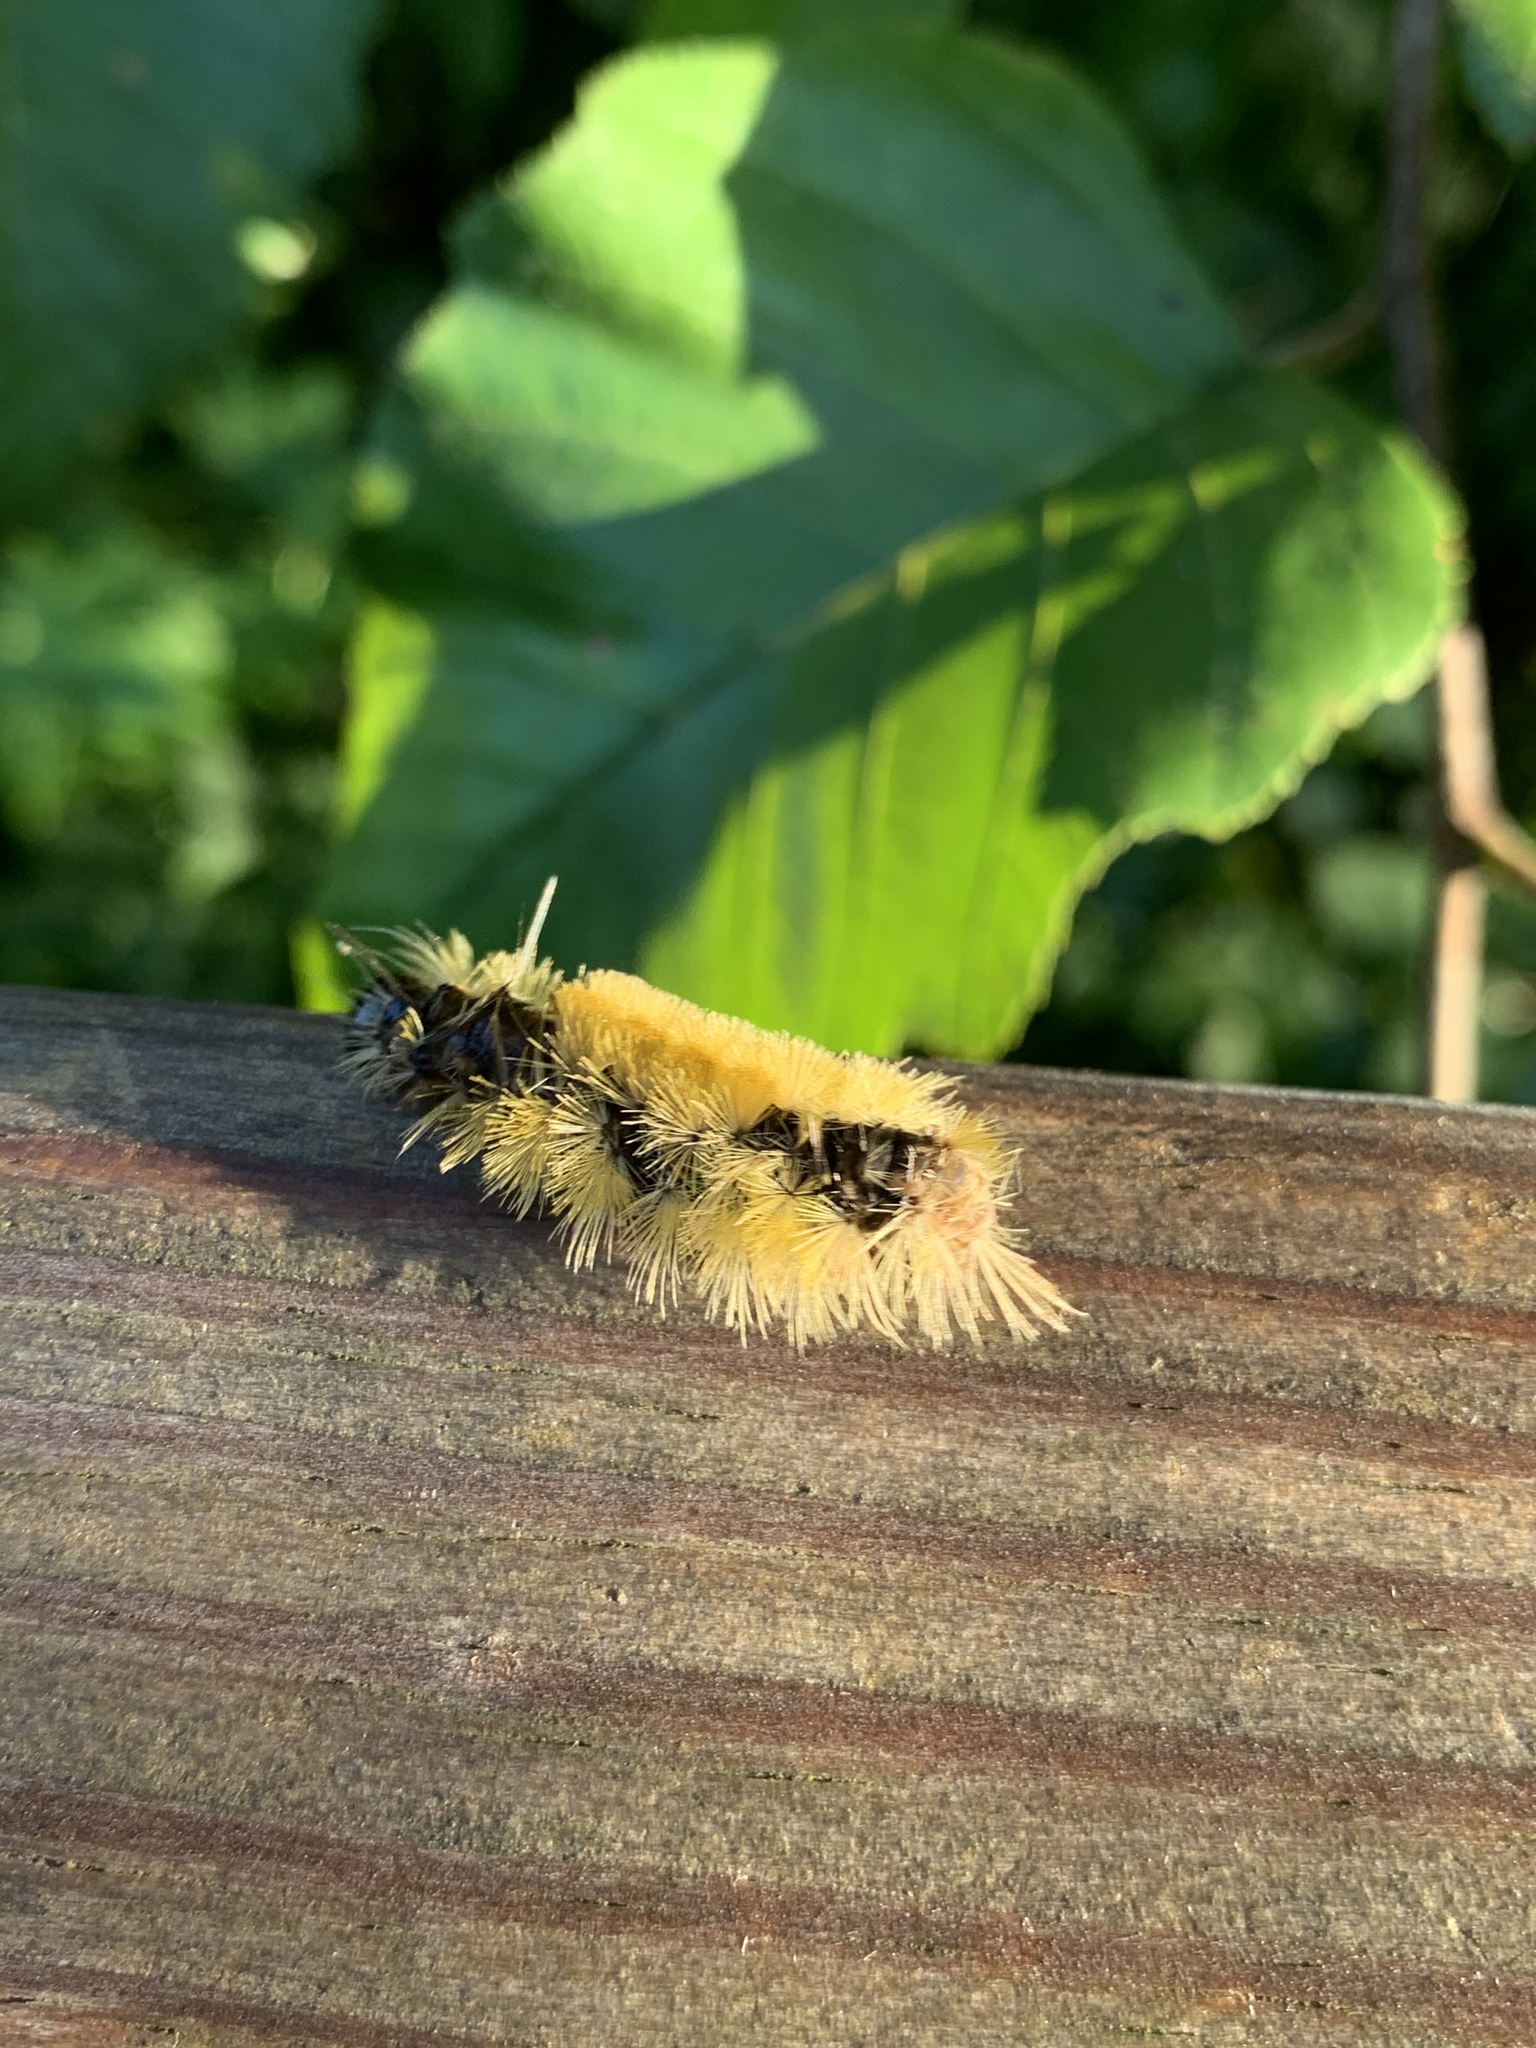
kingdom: Animalia
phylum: Arthropoda
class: Insecta
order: Lepidoptera
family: Erebidae
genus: Halysidota
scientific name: Halysidota tessellaris
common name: Banded tussock moth
